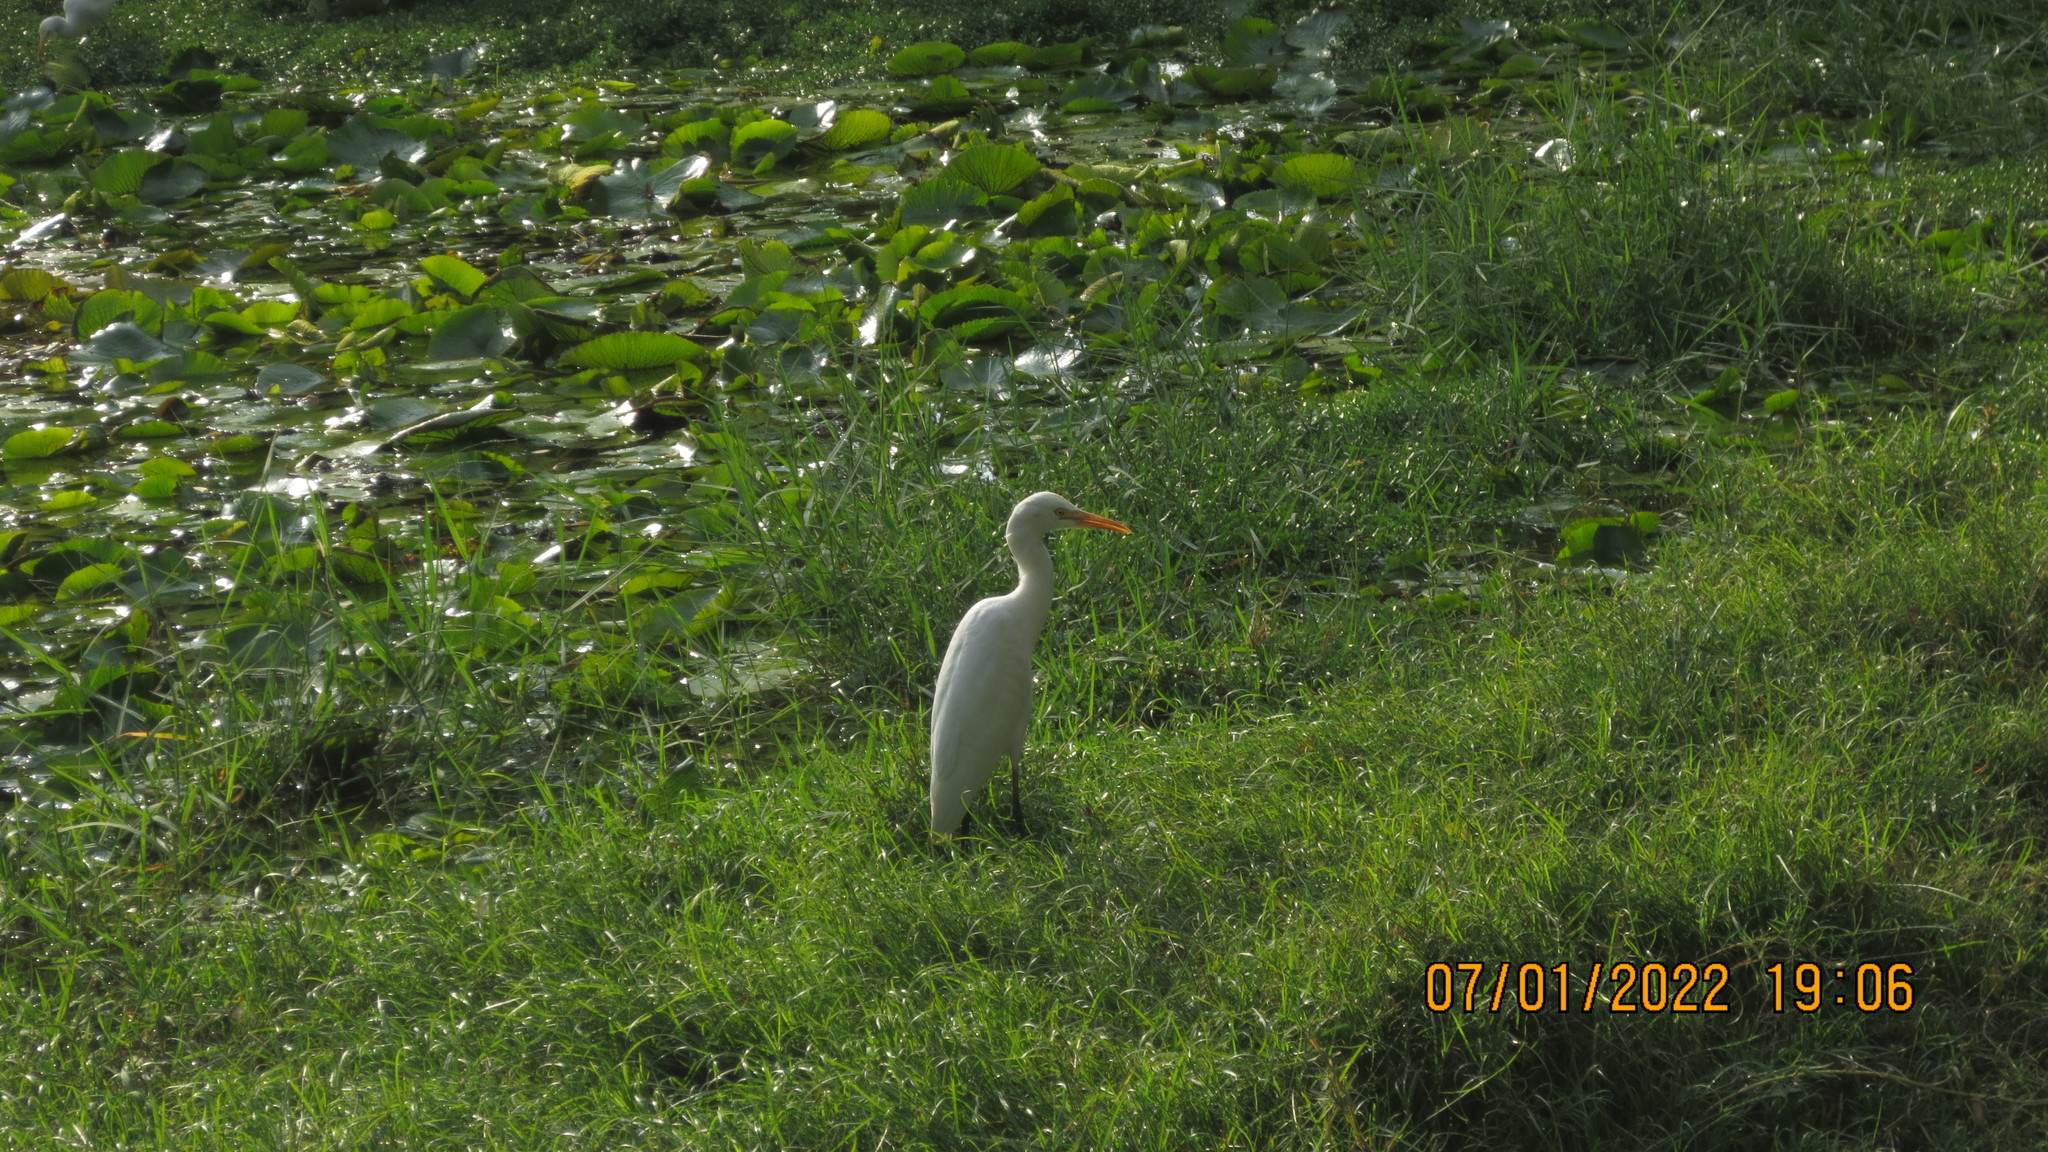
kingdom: Animalia
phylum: Chordata
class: Aves
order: Pelecaniformes
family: Ardeidae
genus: Bubulcus
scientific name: Bubulcus coromandus
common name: Eastern cattle egret
